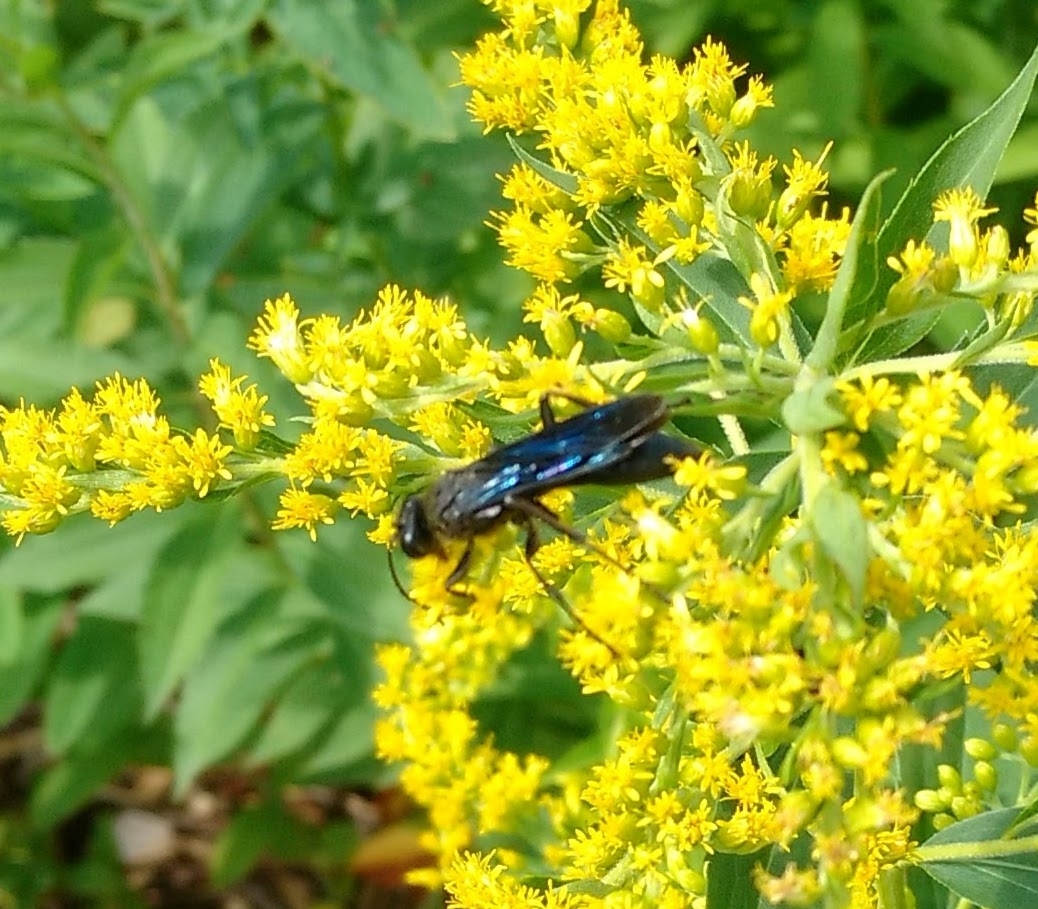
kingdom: Animalia
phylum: Arthropoda
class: Insecta
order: Hymenoptera
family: Sphecidae
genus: Sphex
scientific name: Sphex pensylvanicus
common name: Great black digger wasp
